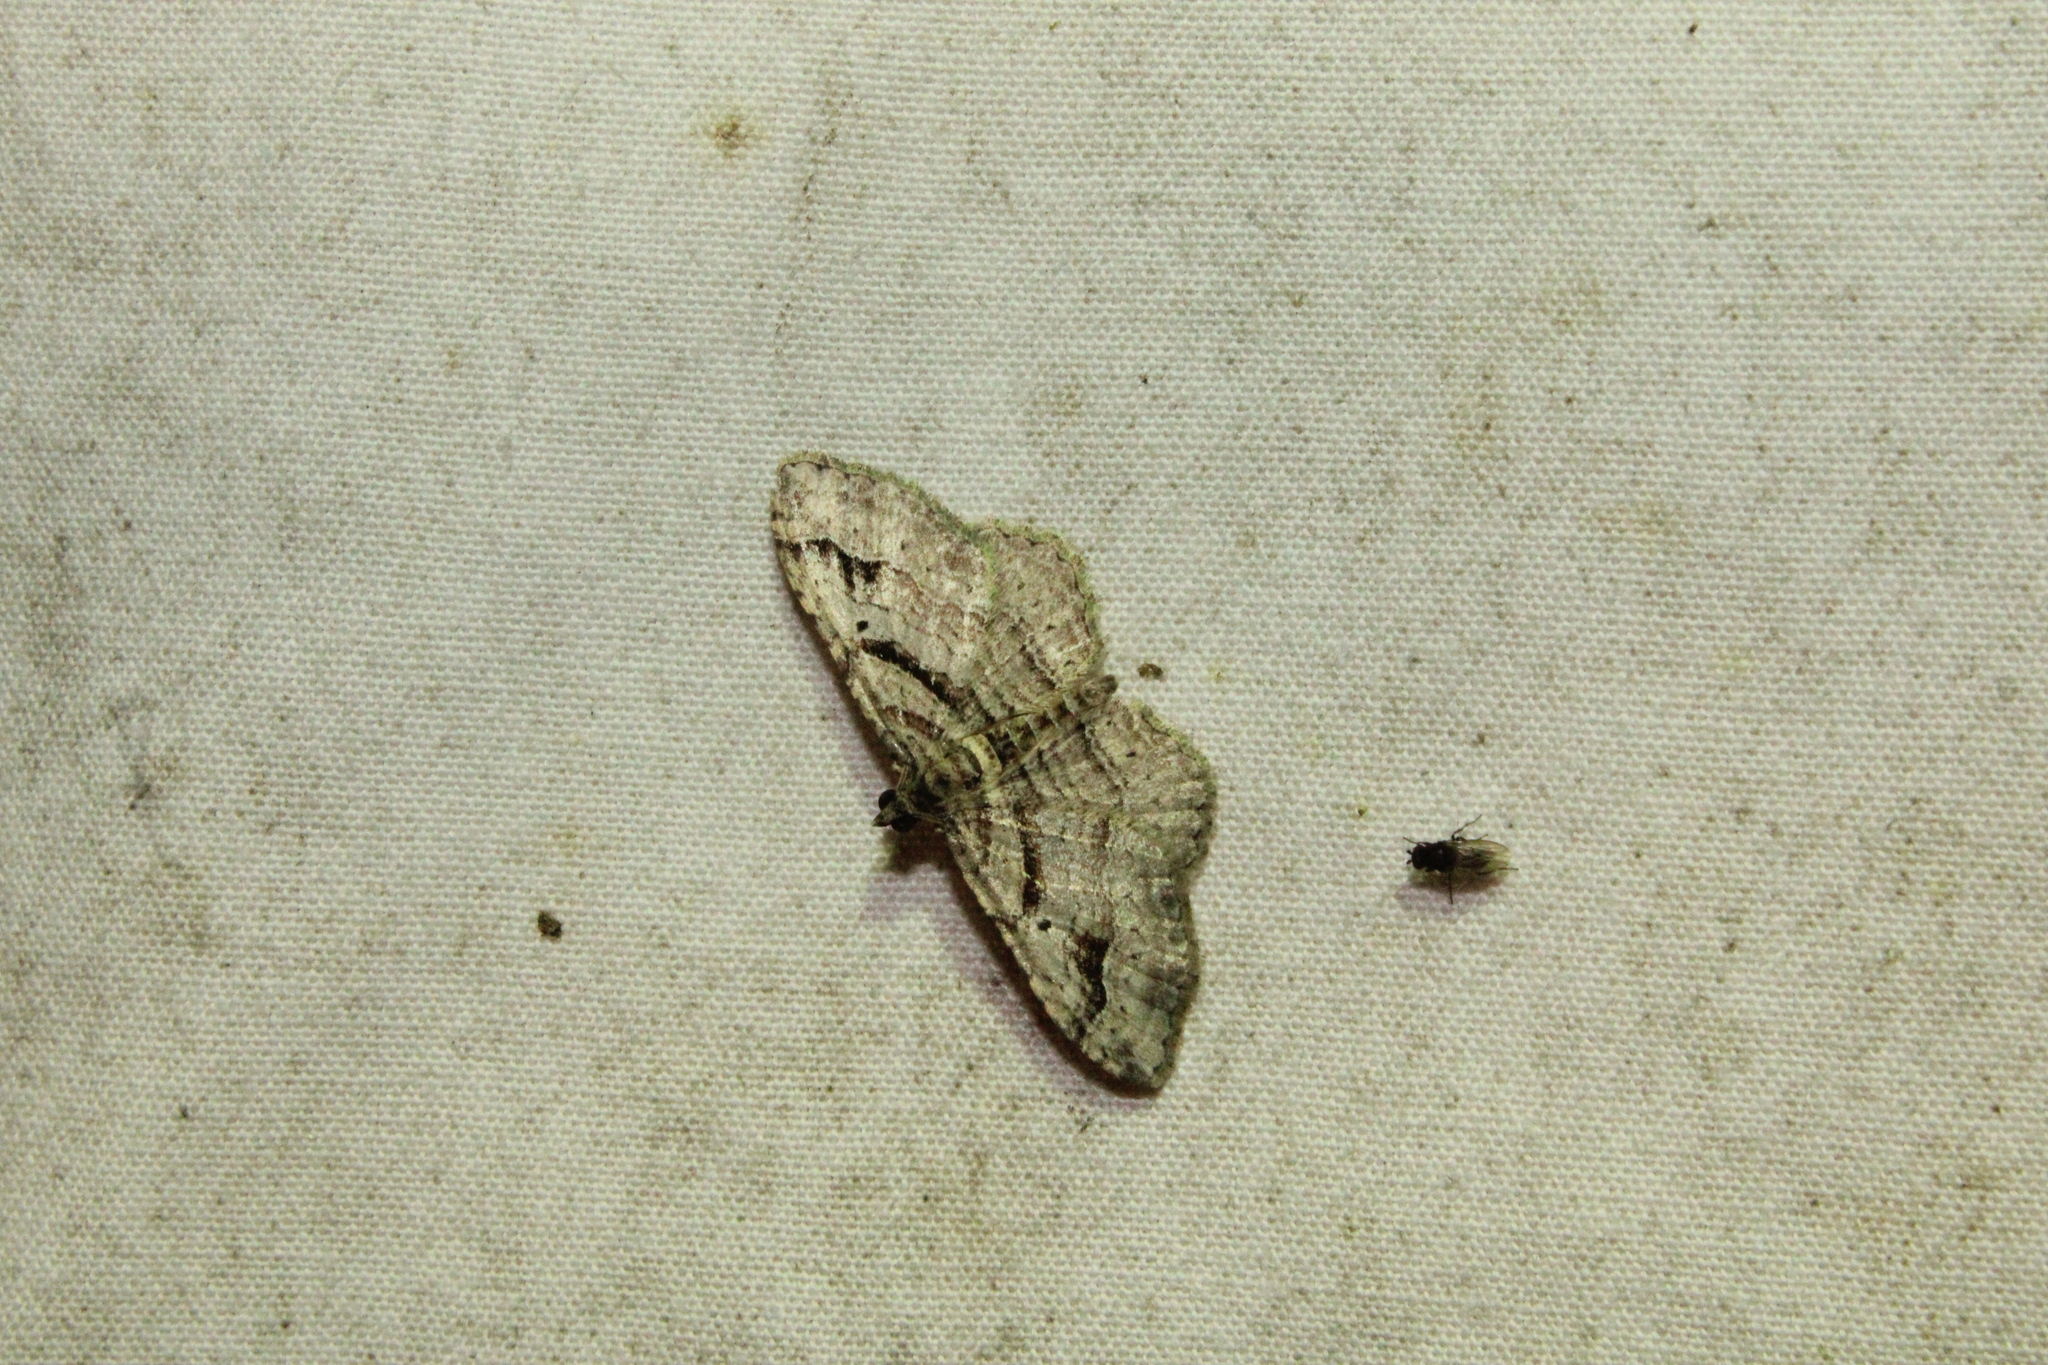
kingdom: Animalia
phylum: Arthropoda
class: Insecta
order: Lepidoptera
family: Geometridae
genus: Costaconvexa
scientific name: Costaconvexa centrostrigaria
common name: Bent-line carpet
